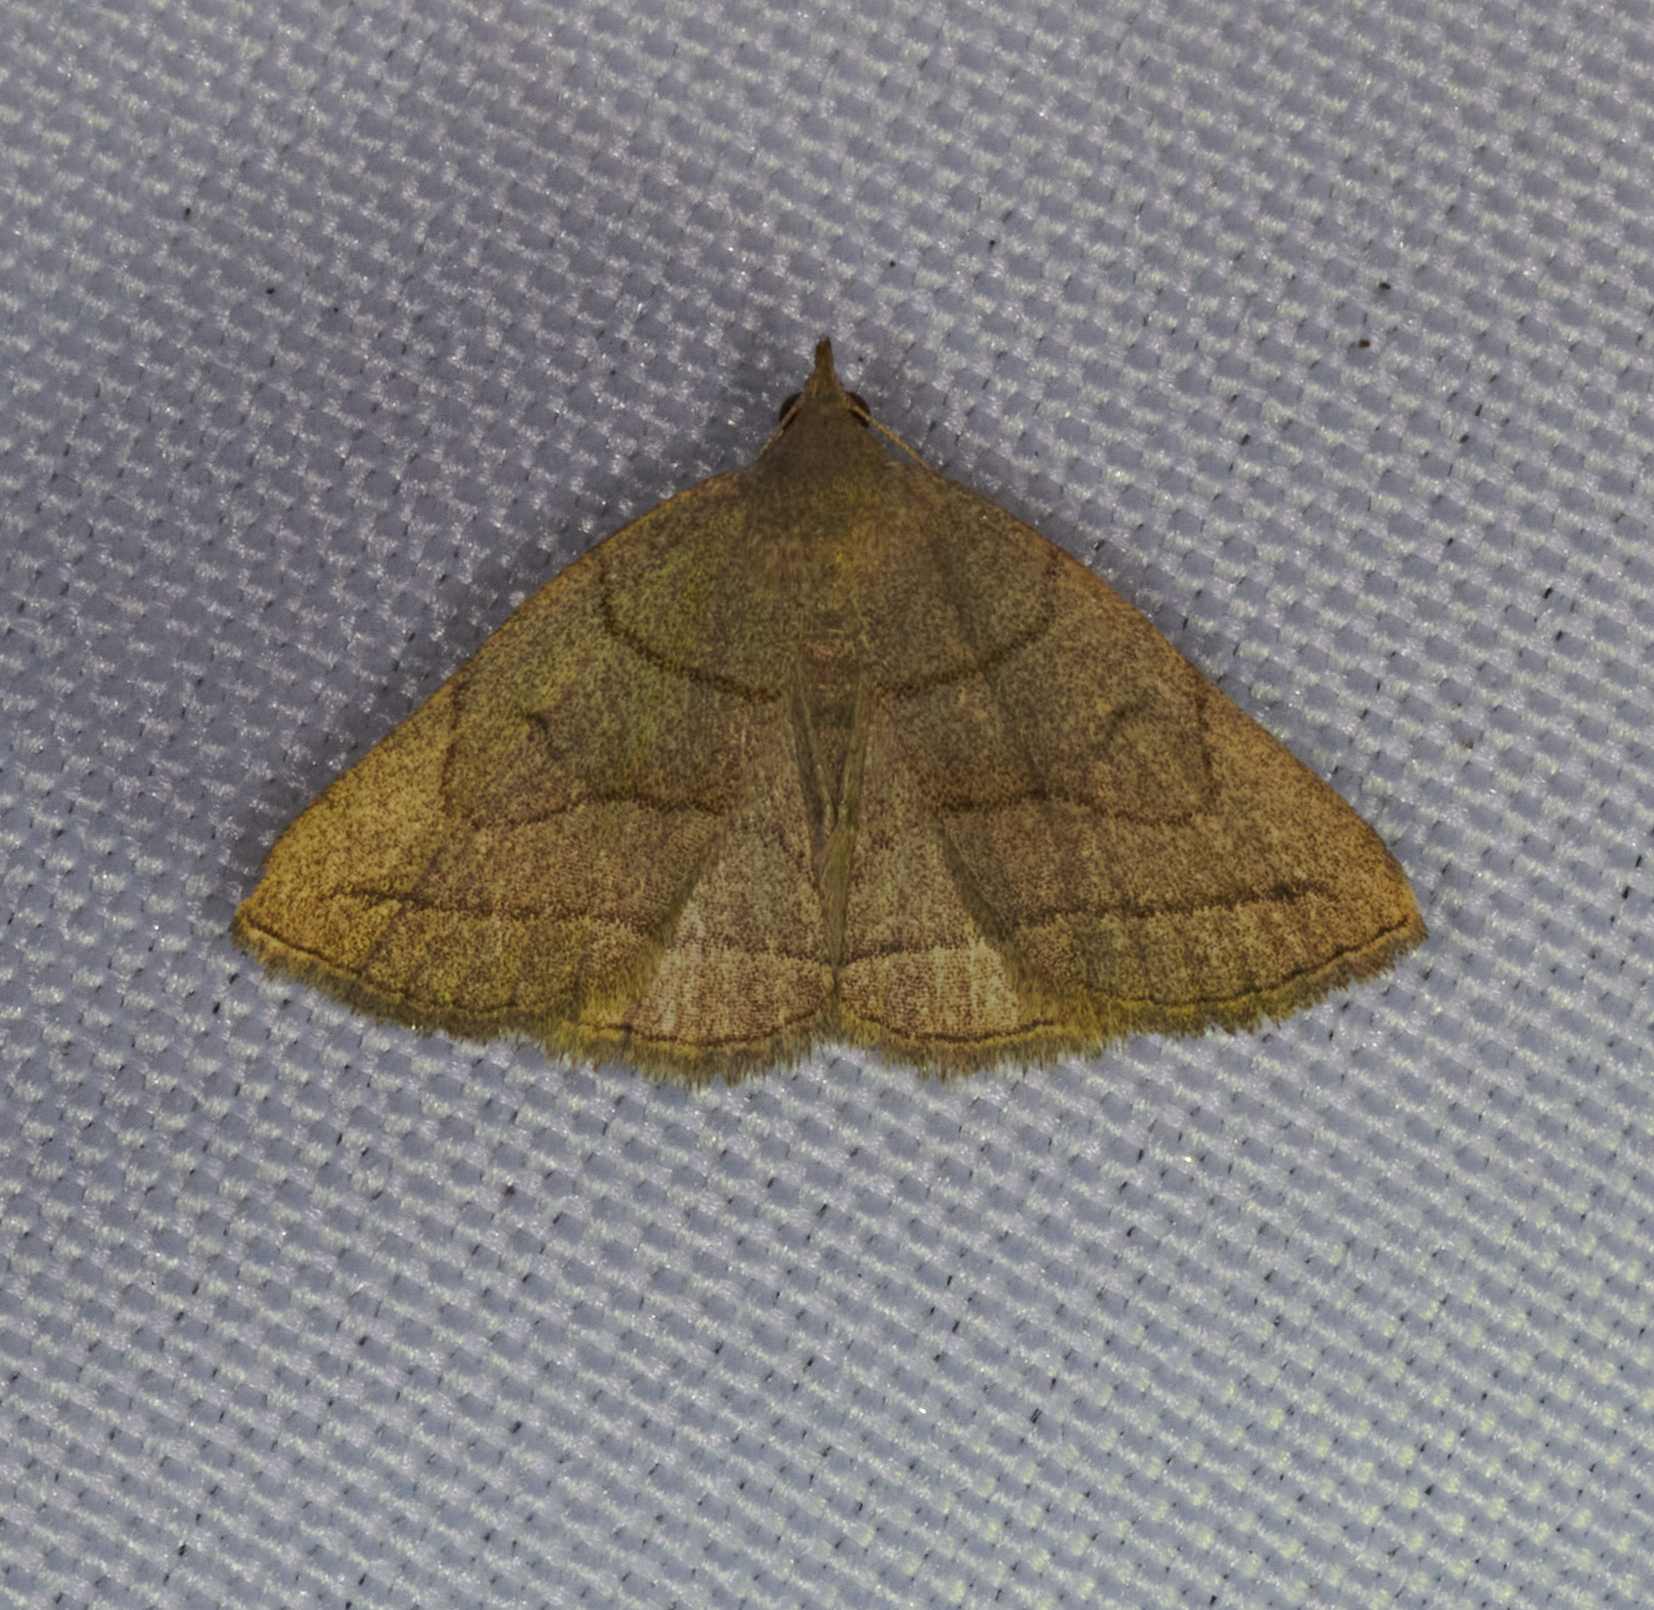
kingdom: Animalia
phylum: Arthropoda
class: Insecta
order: Lepidoptera
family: Erebidae
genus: Zanclognatha
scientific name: Zanclognatha pedipilalis
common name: Grayish fan-foot
